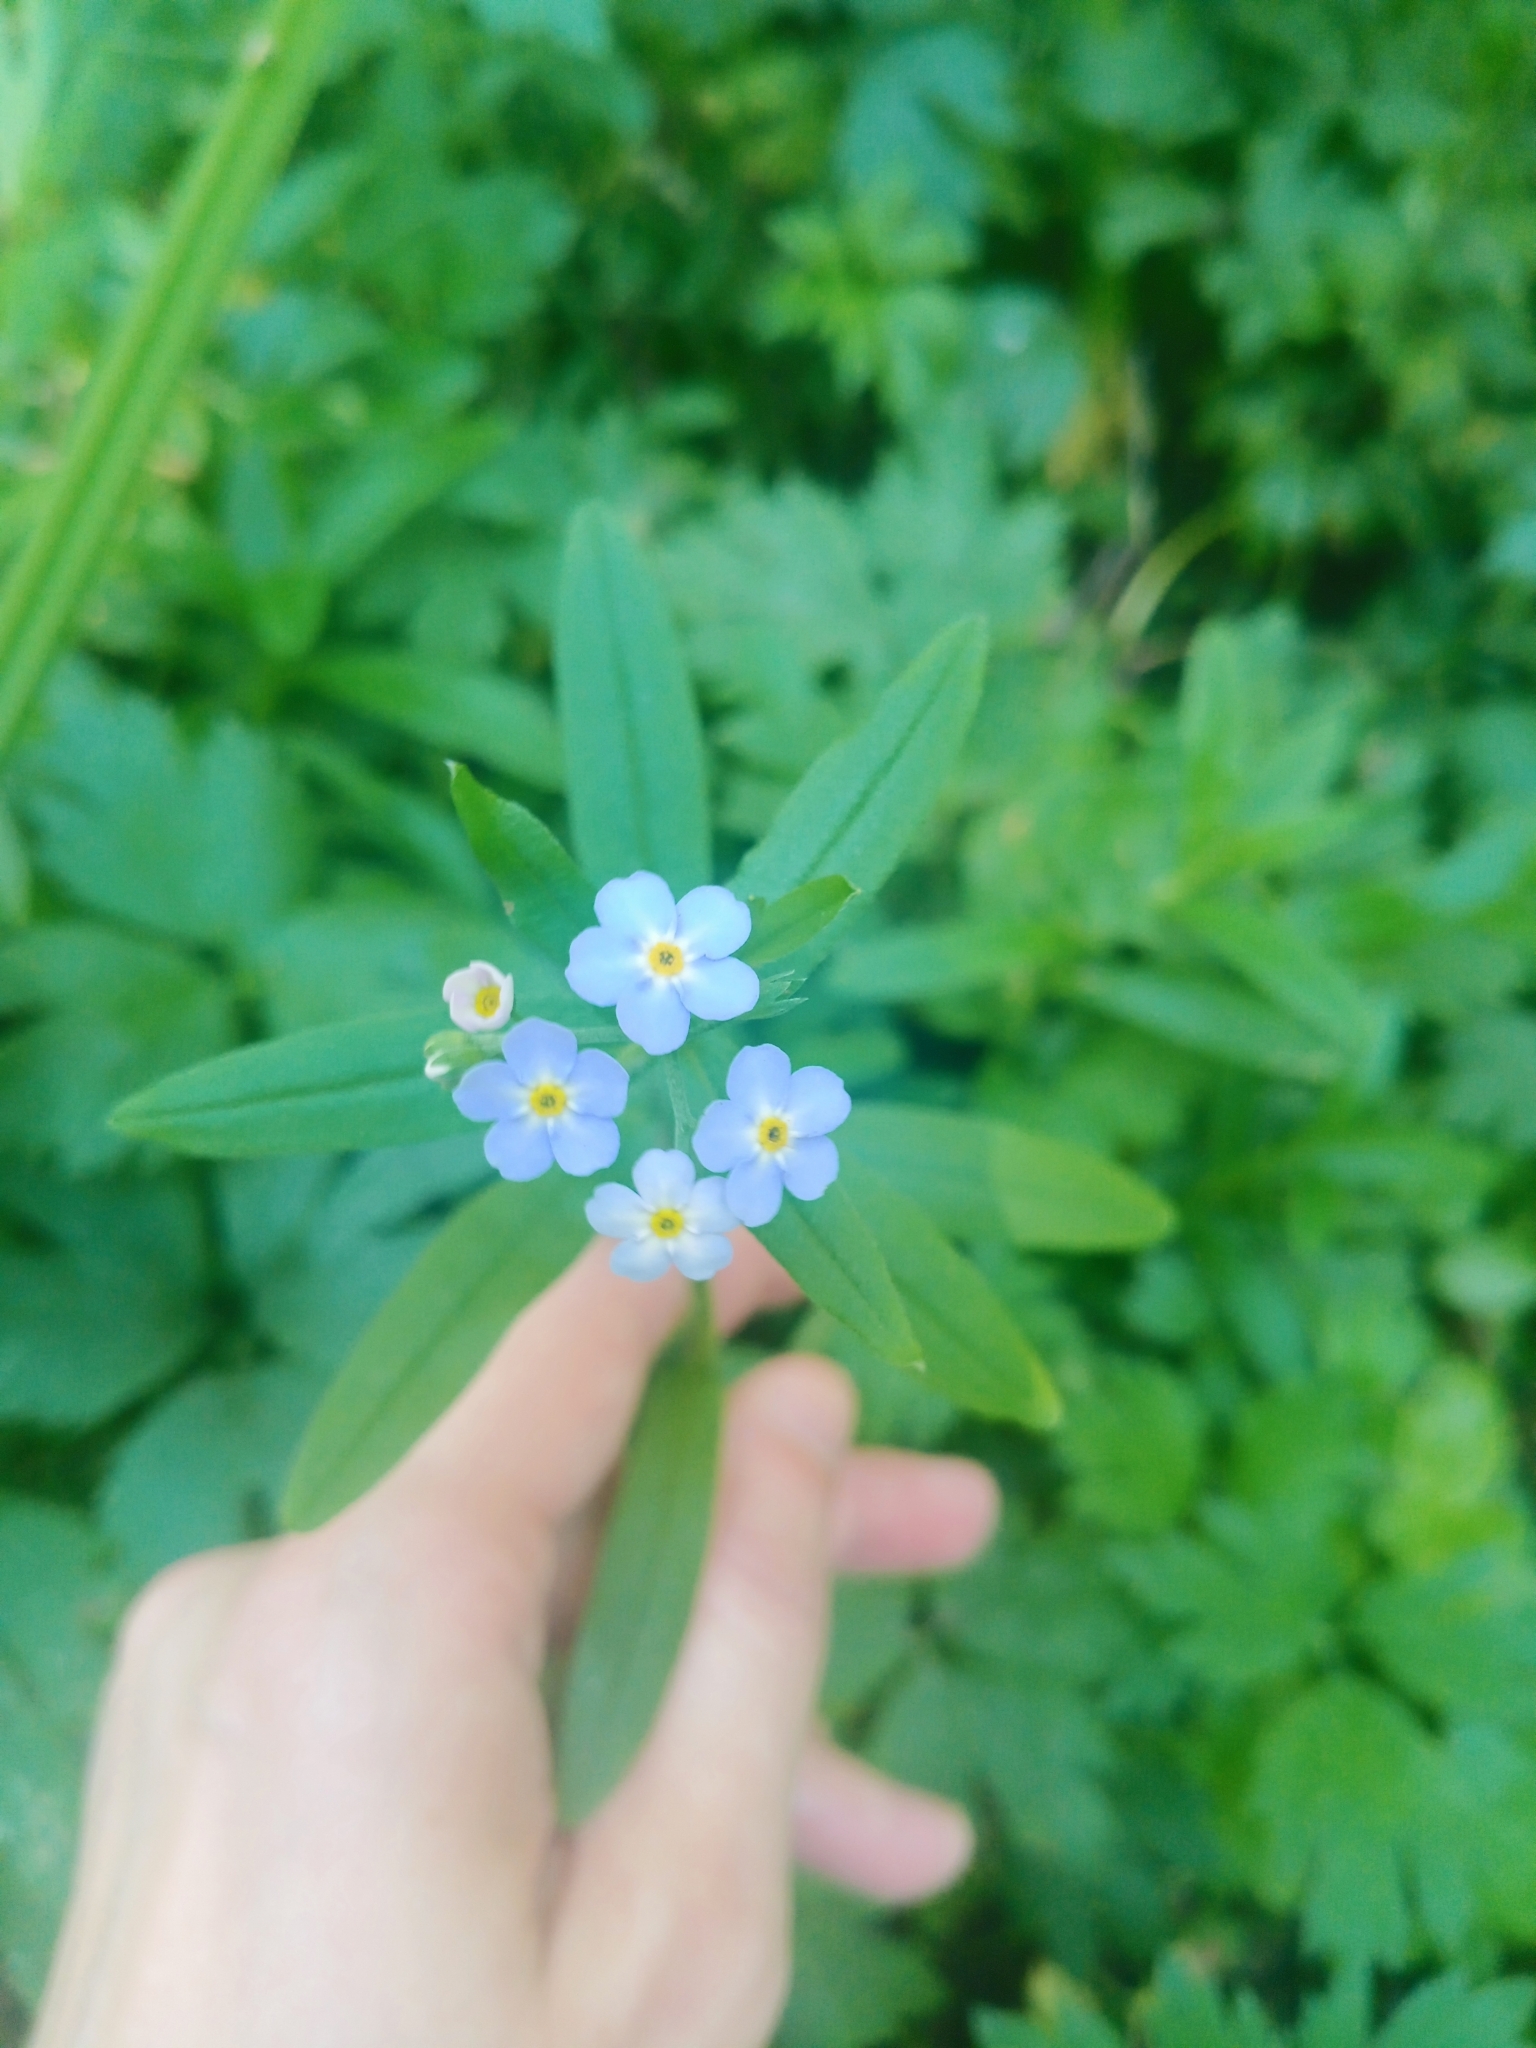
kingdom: Plantae
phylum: Tracheophyta
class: Magnoliopsida
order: Boraginales
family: Boraginaceae
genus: Myosotis
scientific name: Myosotis scorpioides
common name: Water forget-me-not
